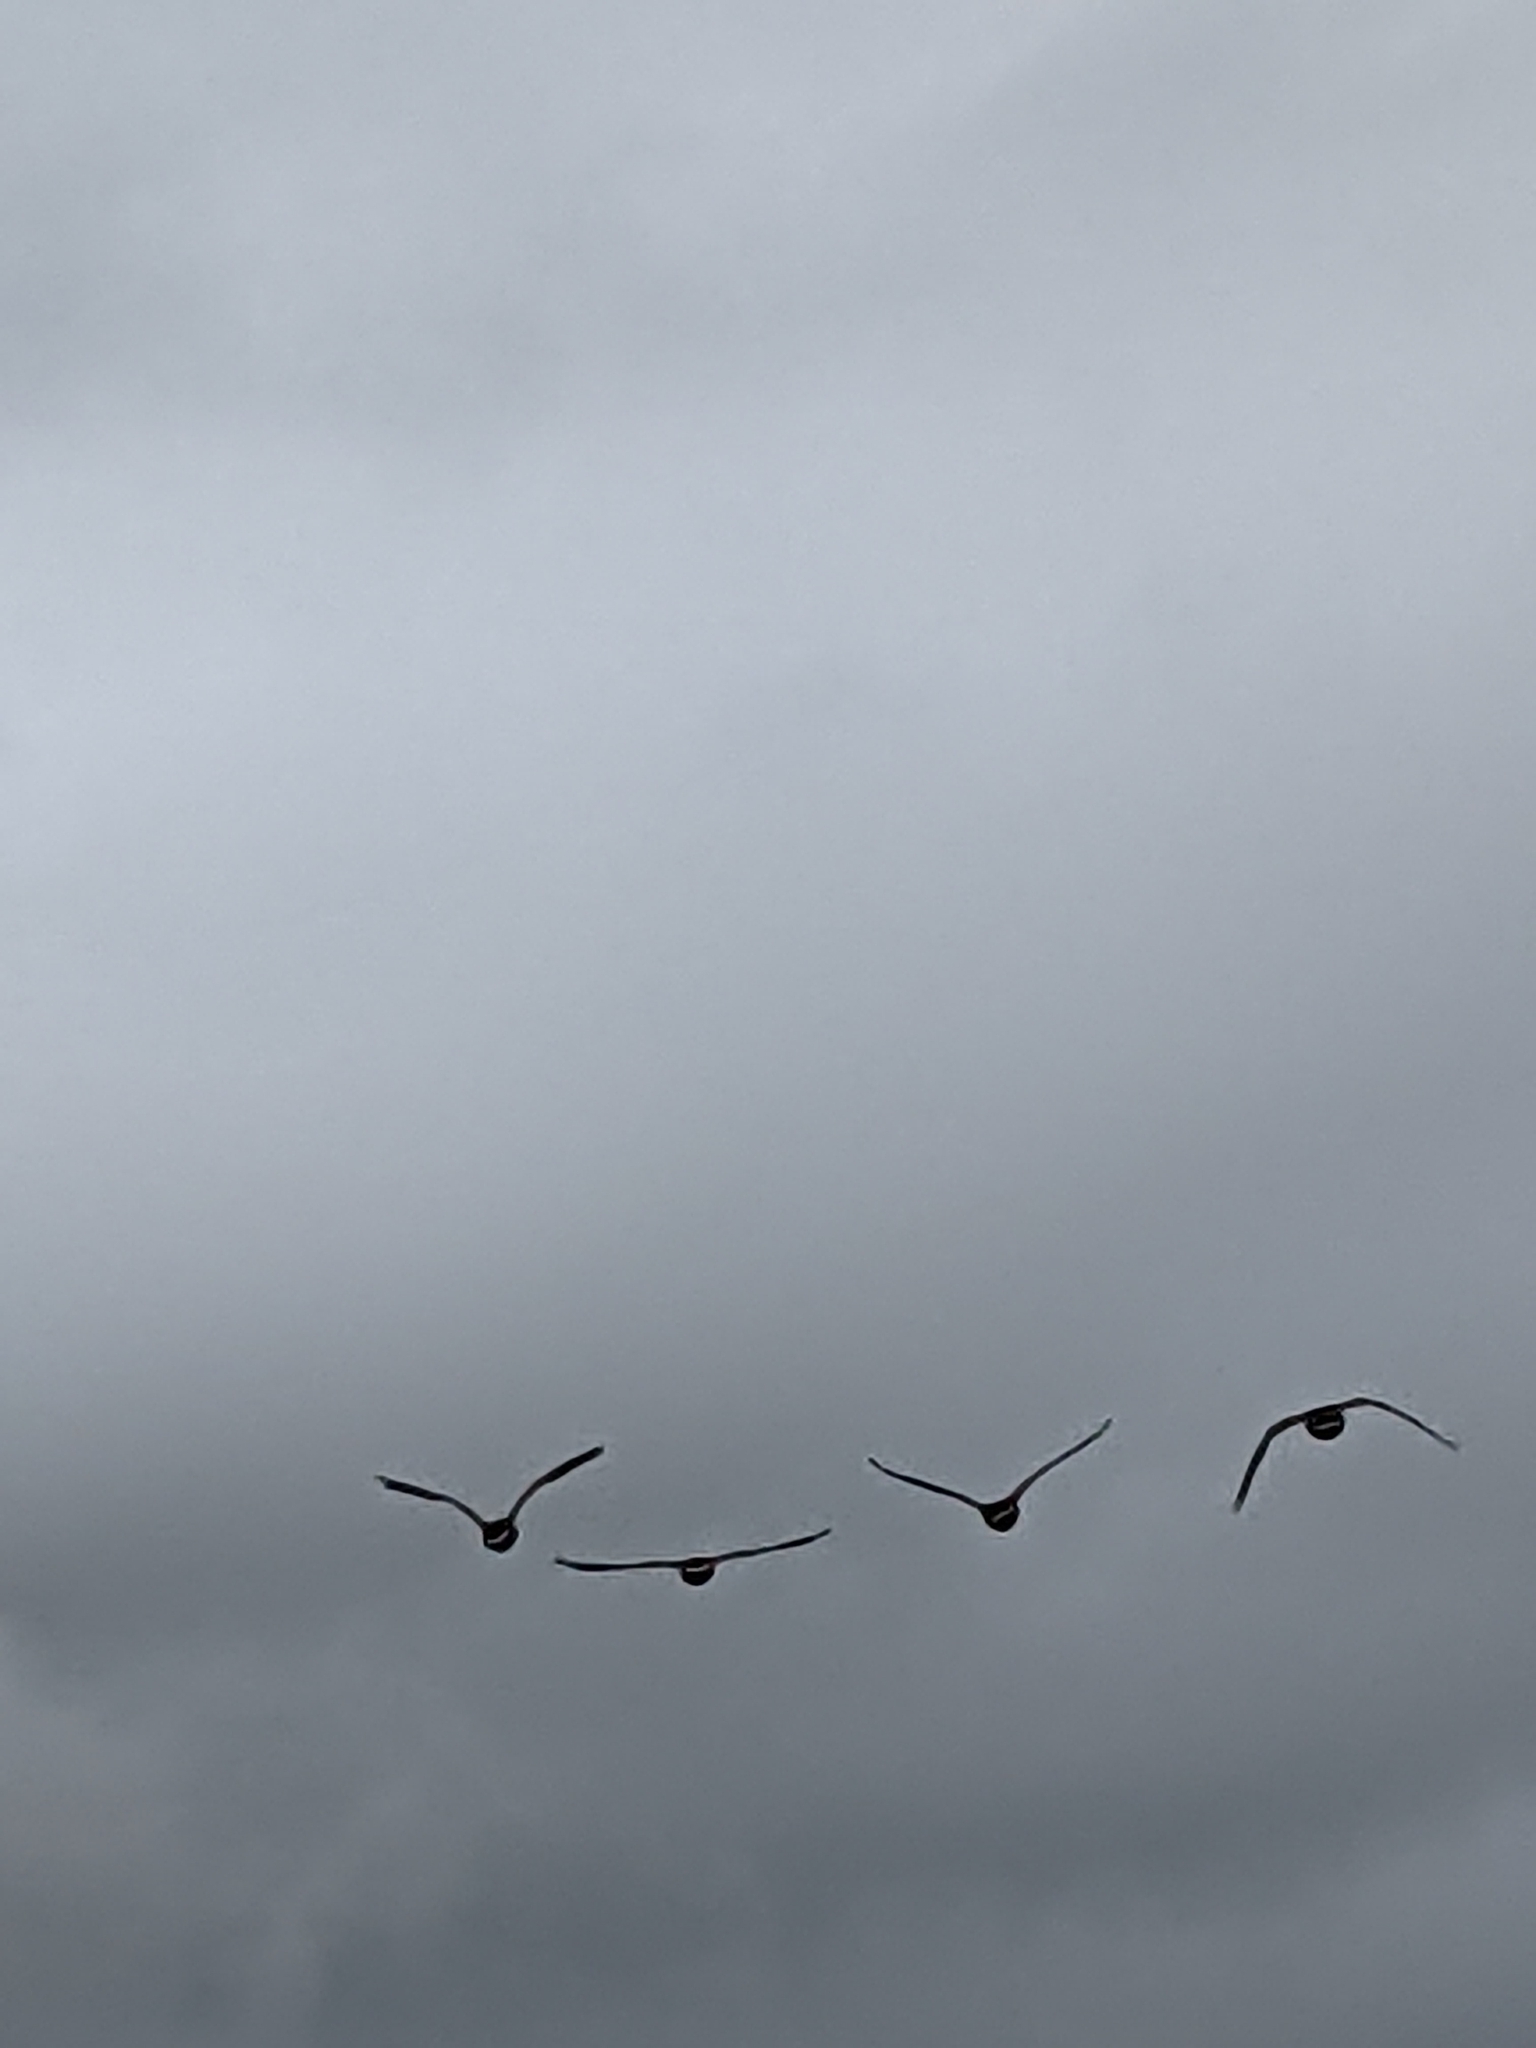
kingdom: Animalia
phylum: Chordata
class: Aves
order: Anseriformes
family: Anatidae
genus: Branta
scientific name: Branta canadensis
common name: Canada goose
